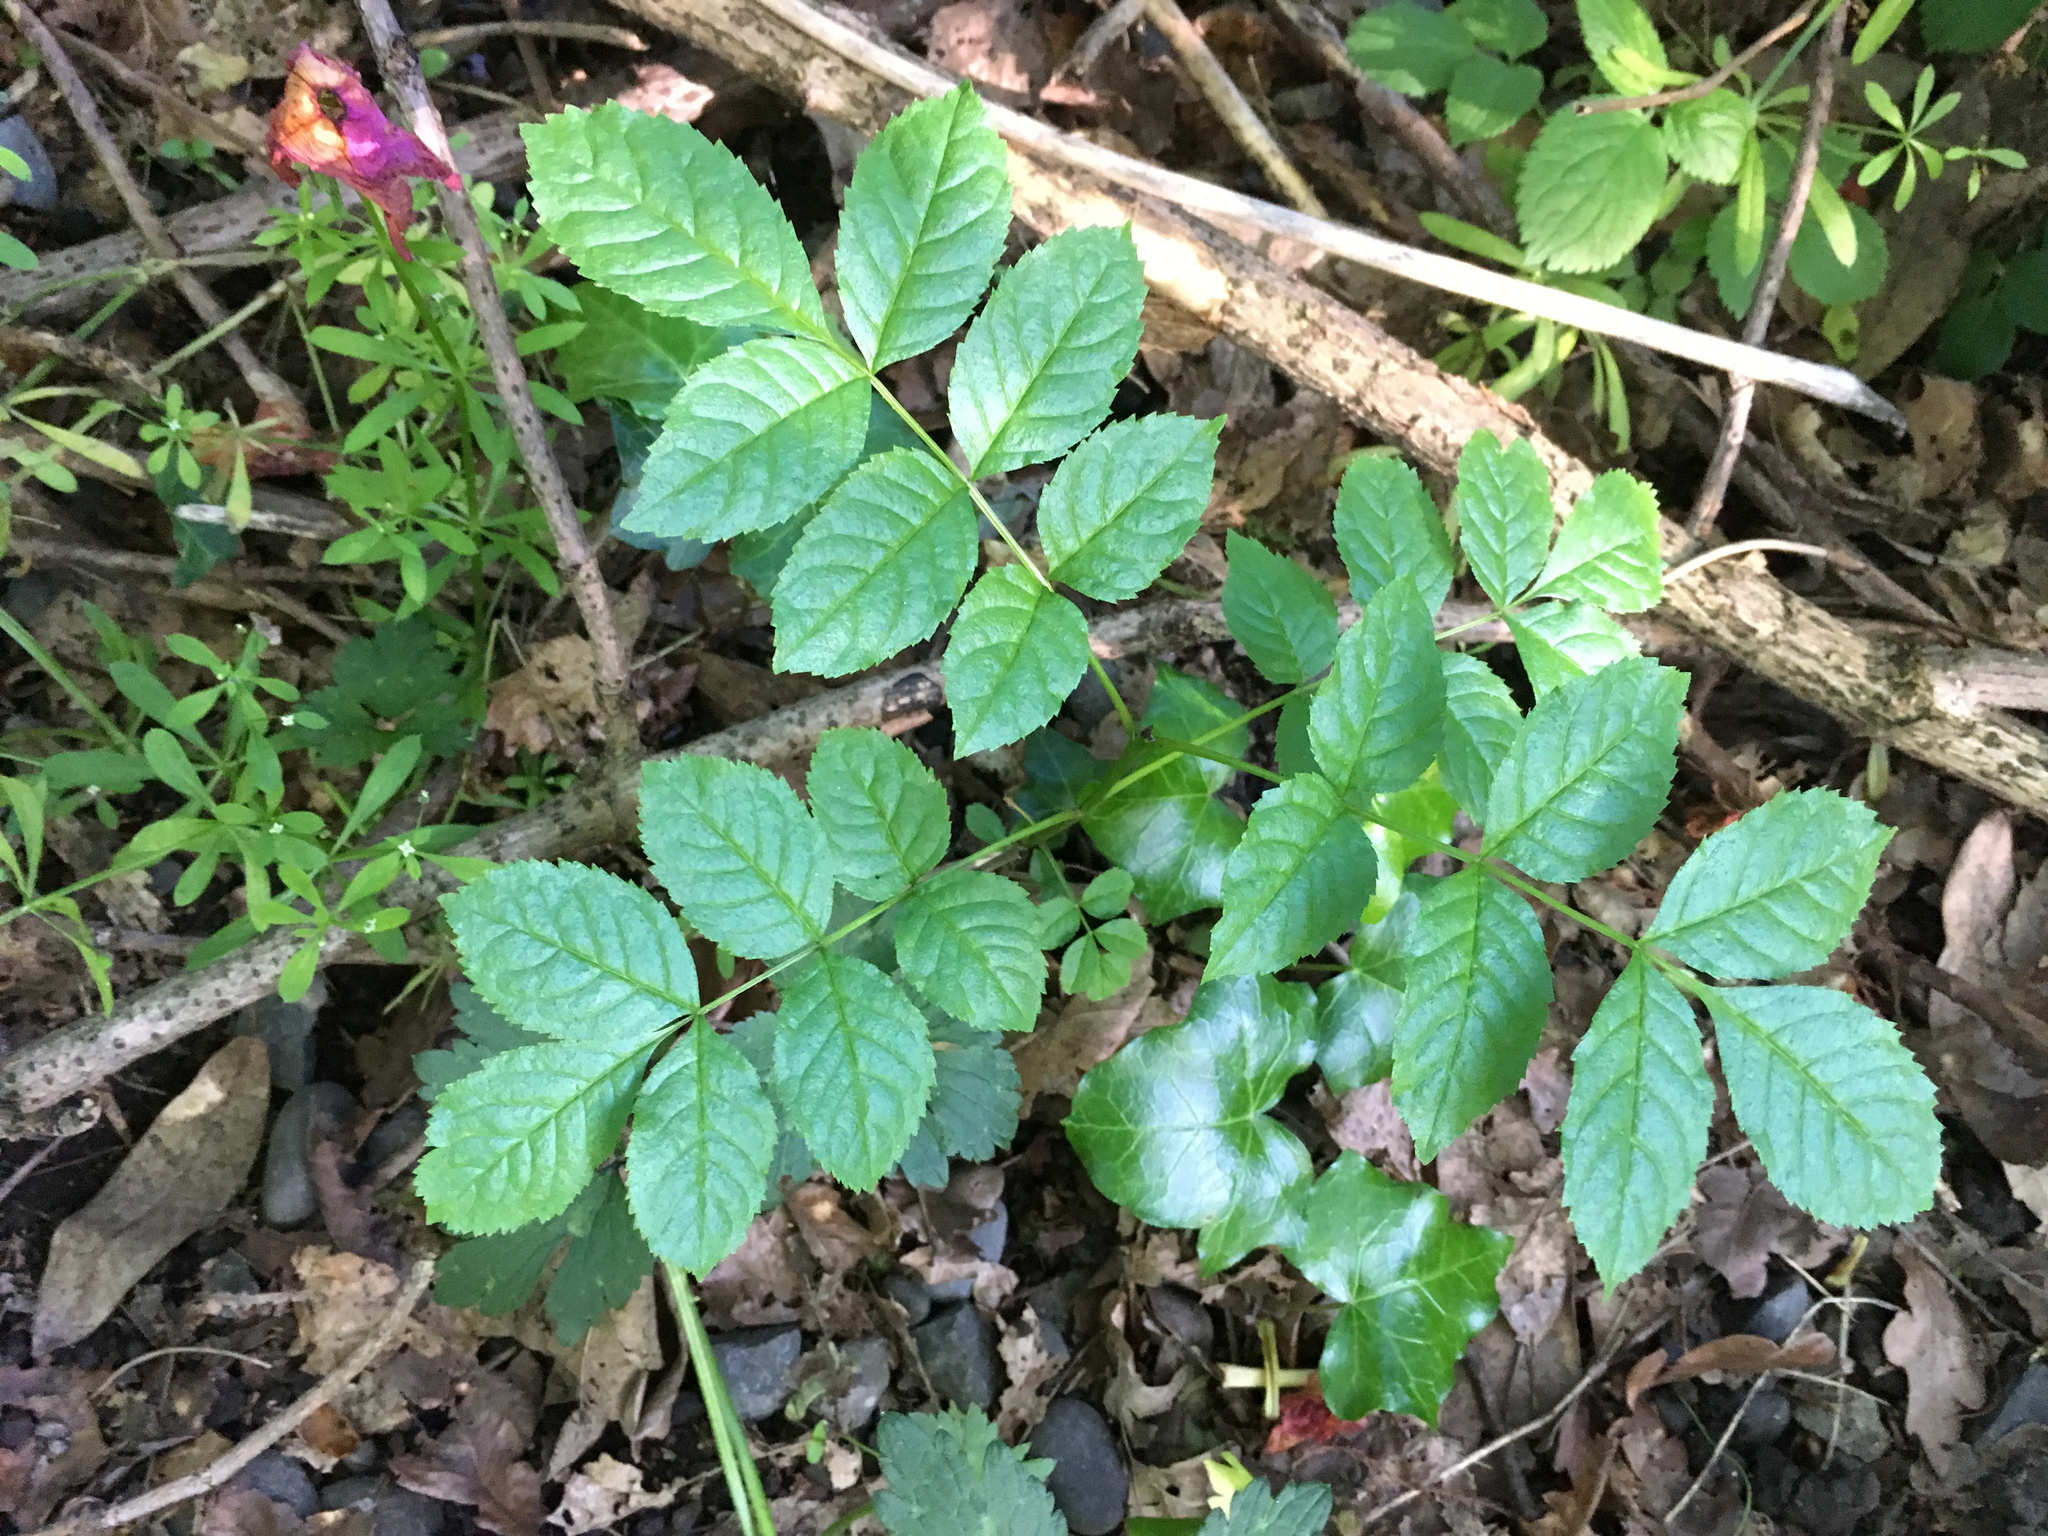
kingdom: Plantae
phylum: Tracheophyta
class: Magnoliopsida
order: Lamiales
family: Oleaceae
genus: Fraxinus
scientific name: Fraxinus excelsior
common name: European ash
